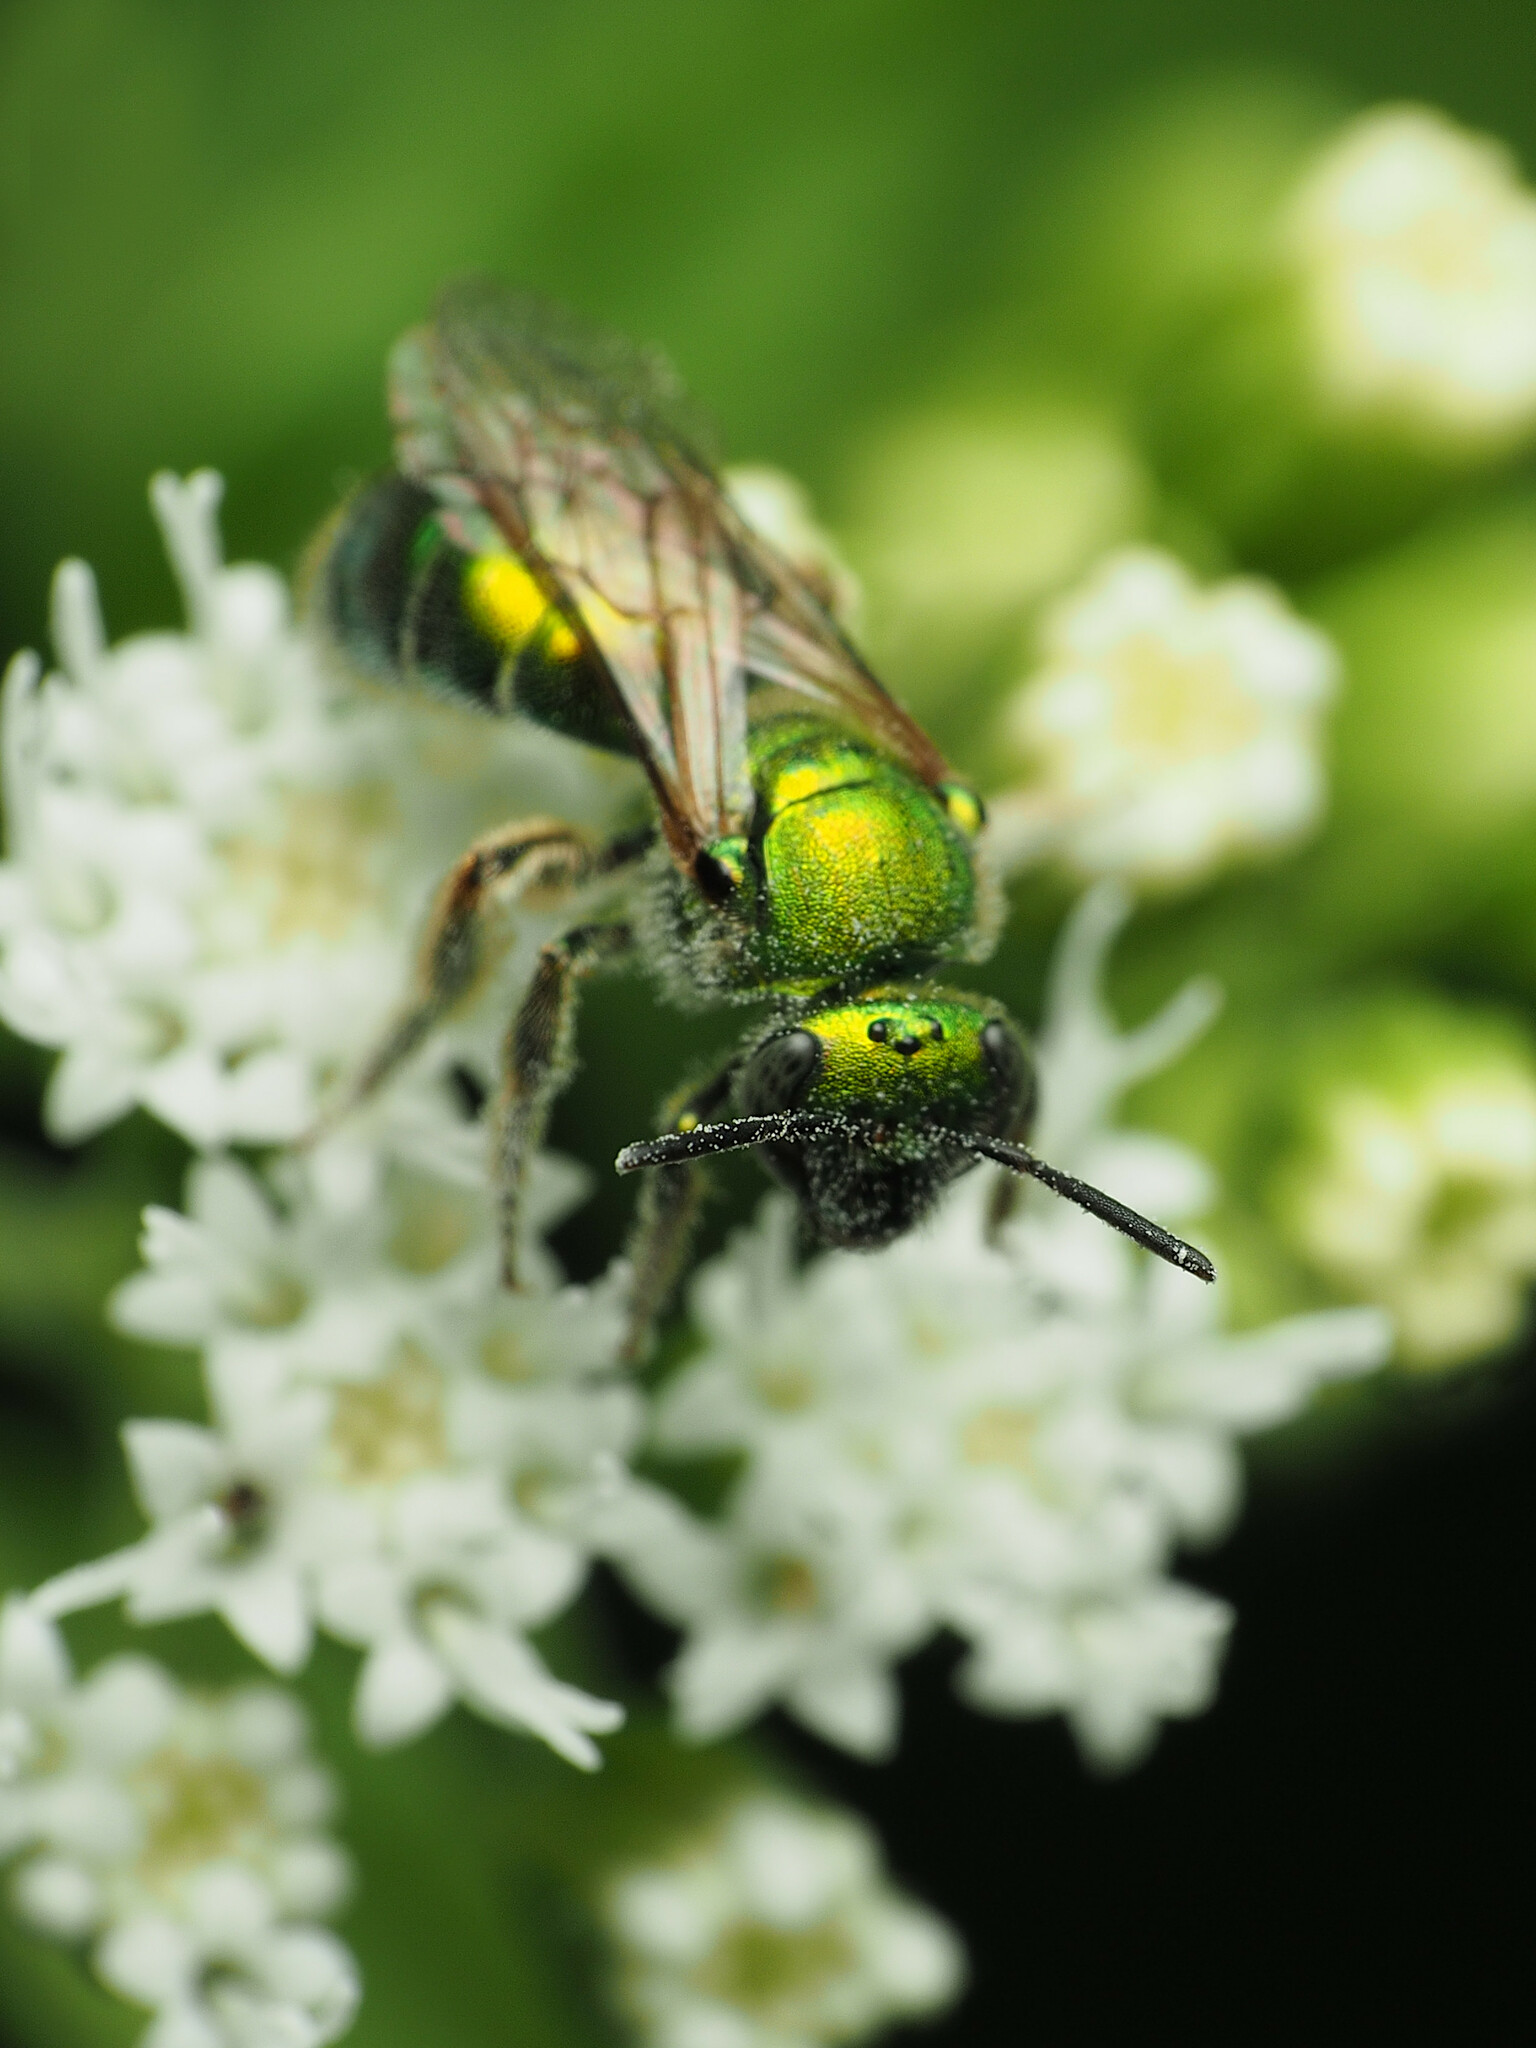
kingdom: Animalia
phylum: Arthropoda
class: Insecta
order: Hymenoptera
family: Halictidae
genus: Augochloropsis
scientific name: Augochloropsis viridula
